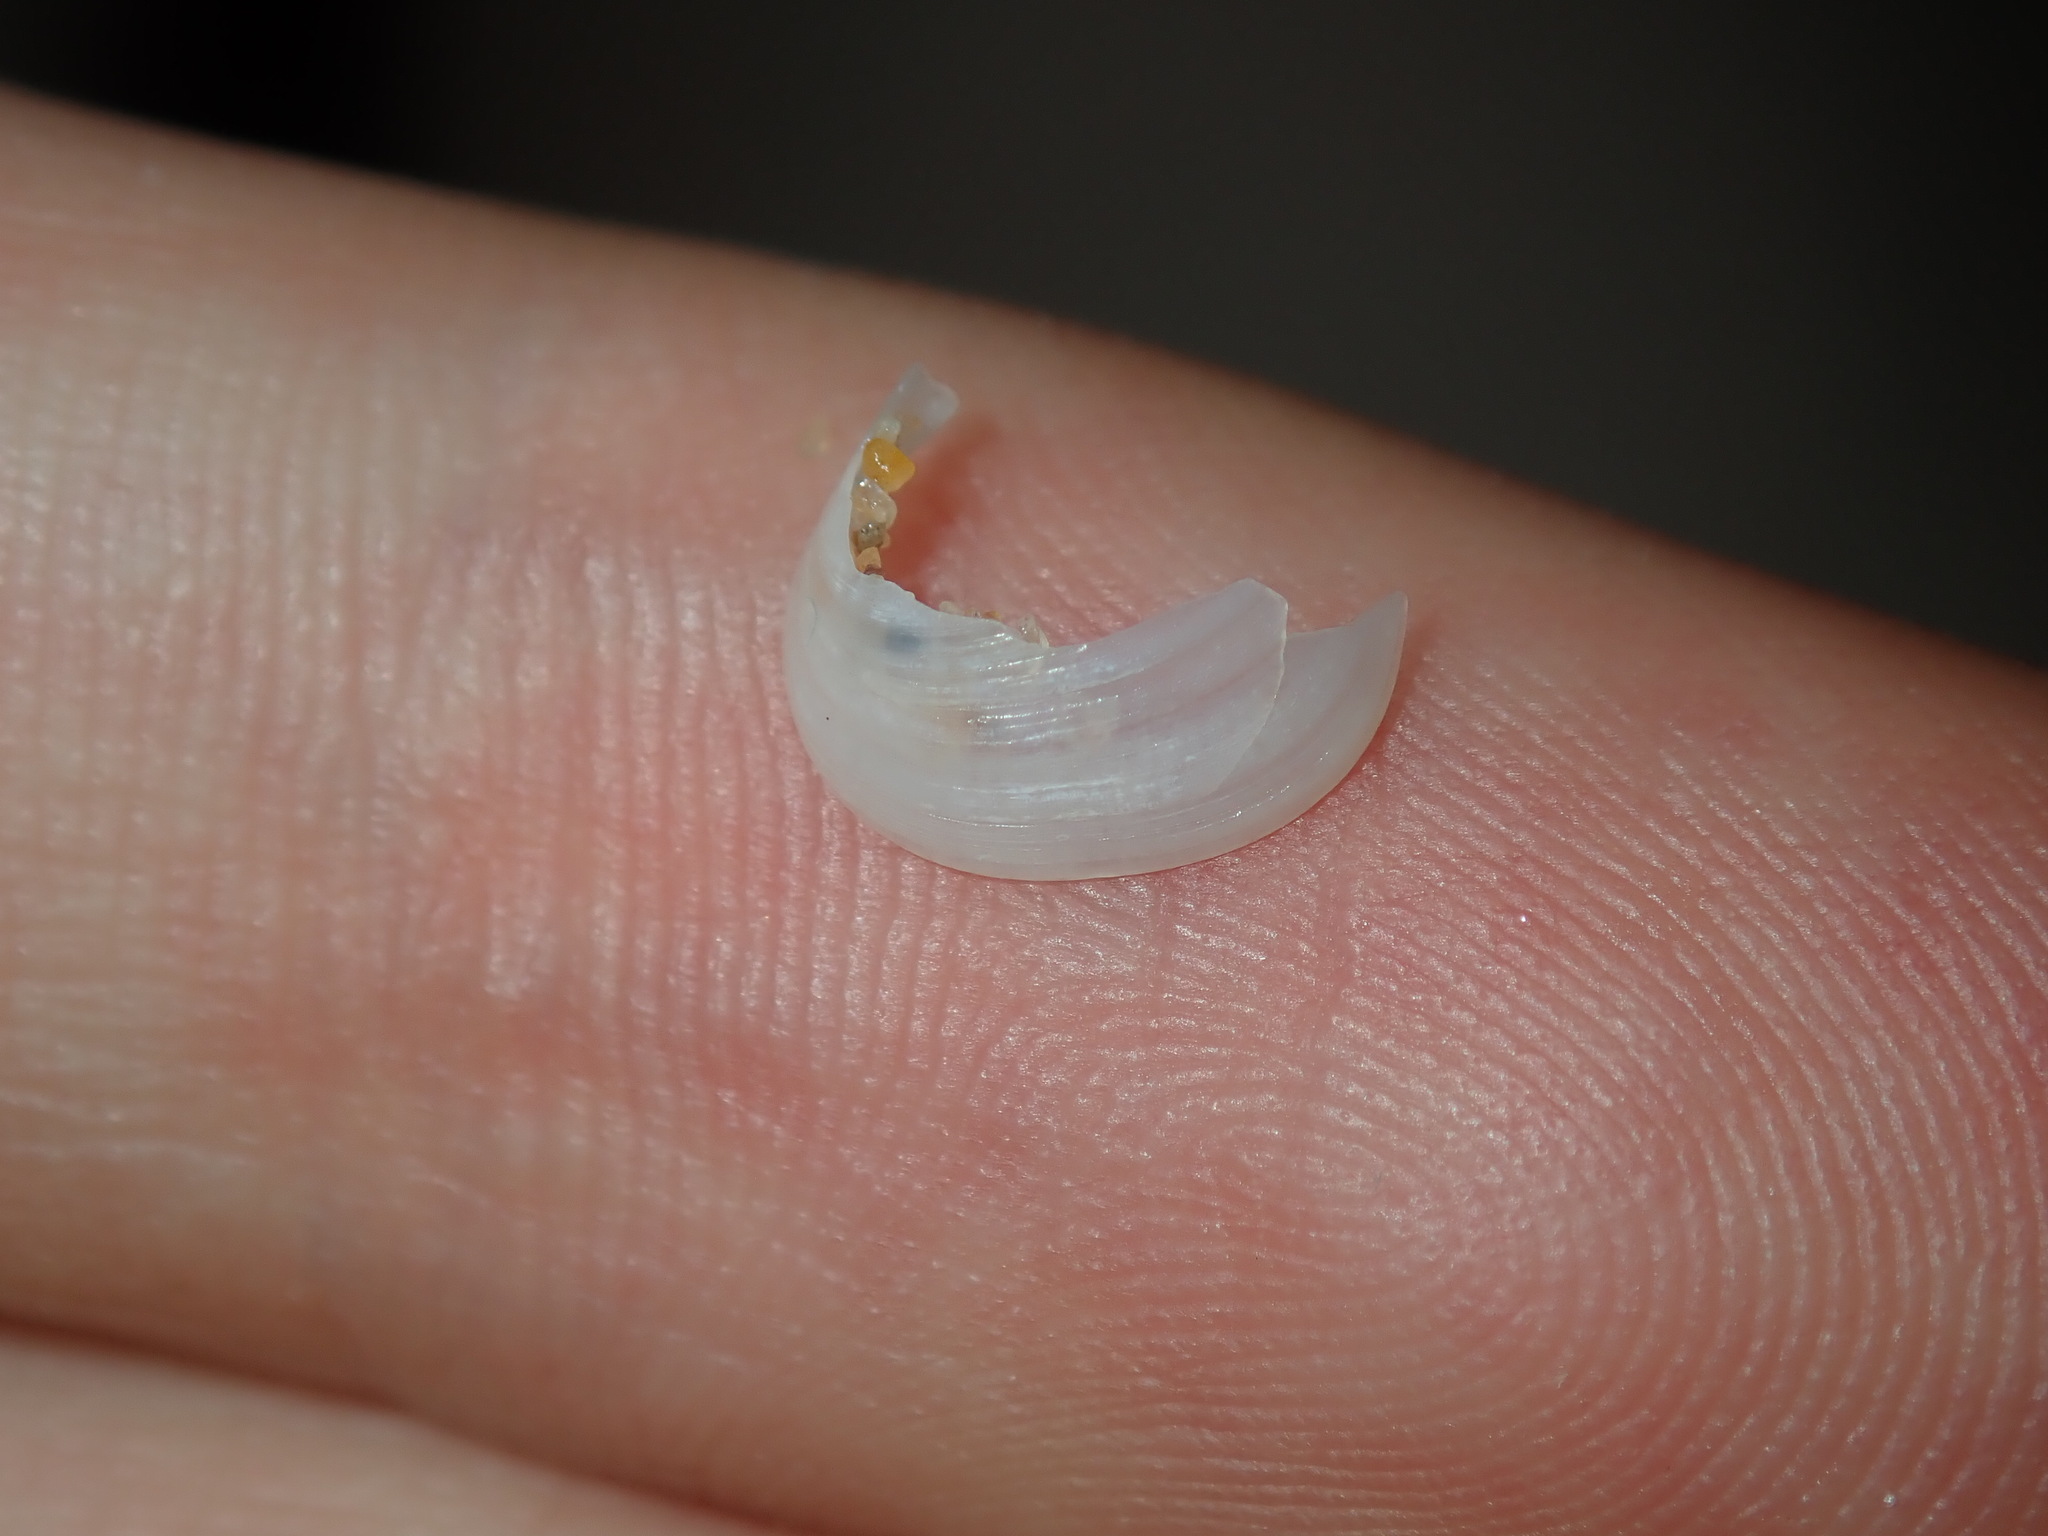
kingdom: Animalia
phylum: Mollusca
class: Bivalvia
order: Galeommatida
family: Galeommatidae
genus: Scintillula
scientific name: Scintillula solida
